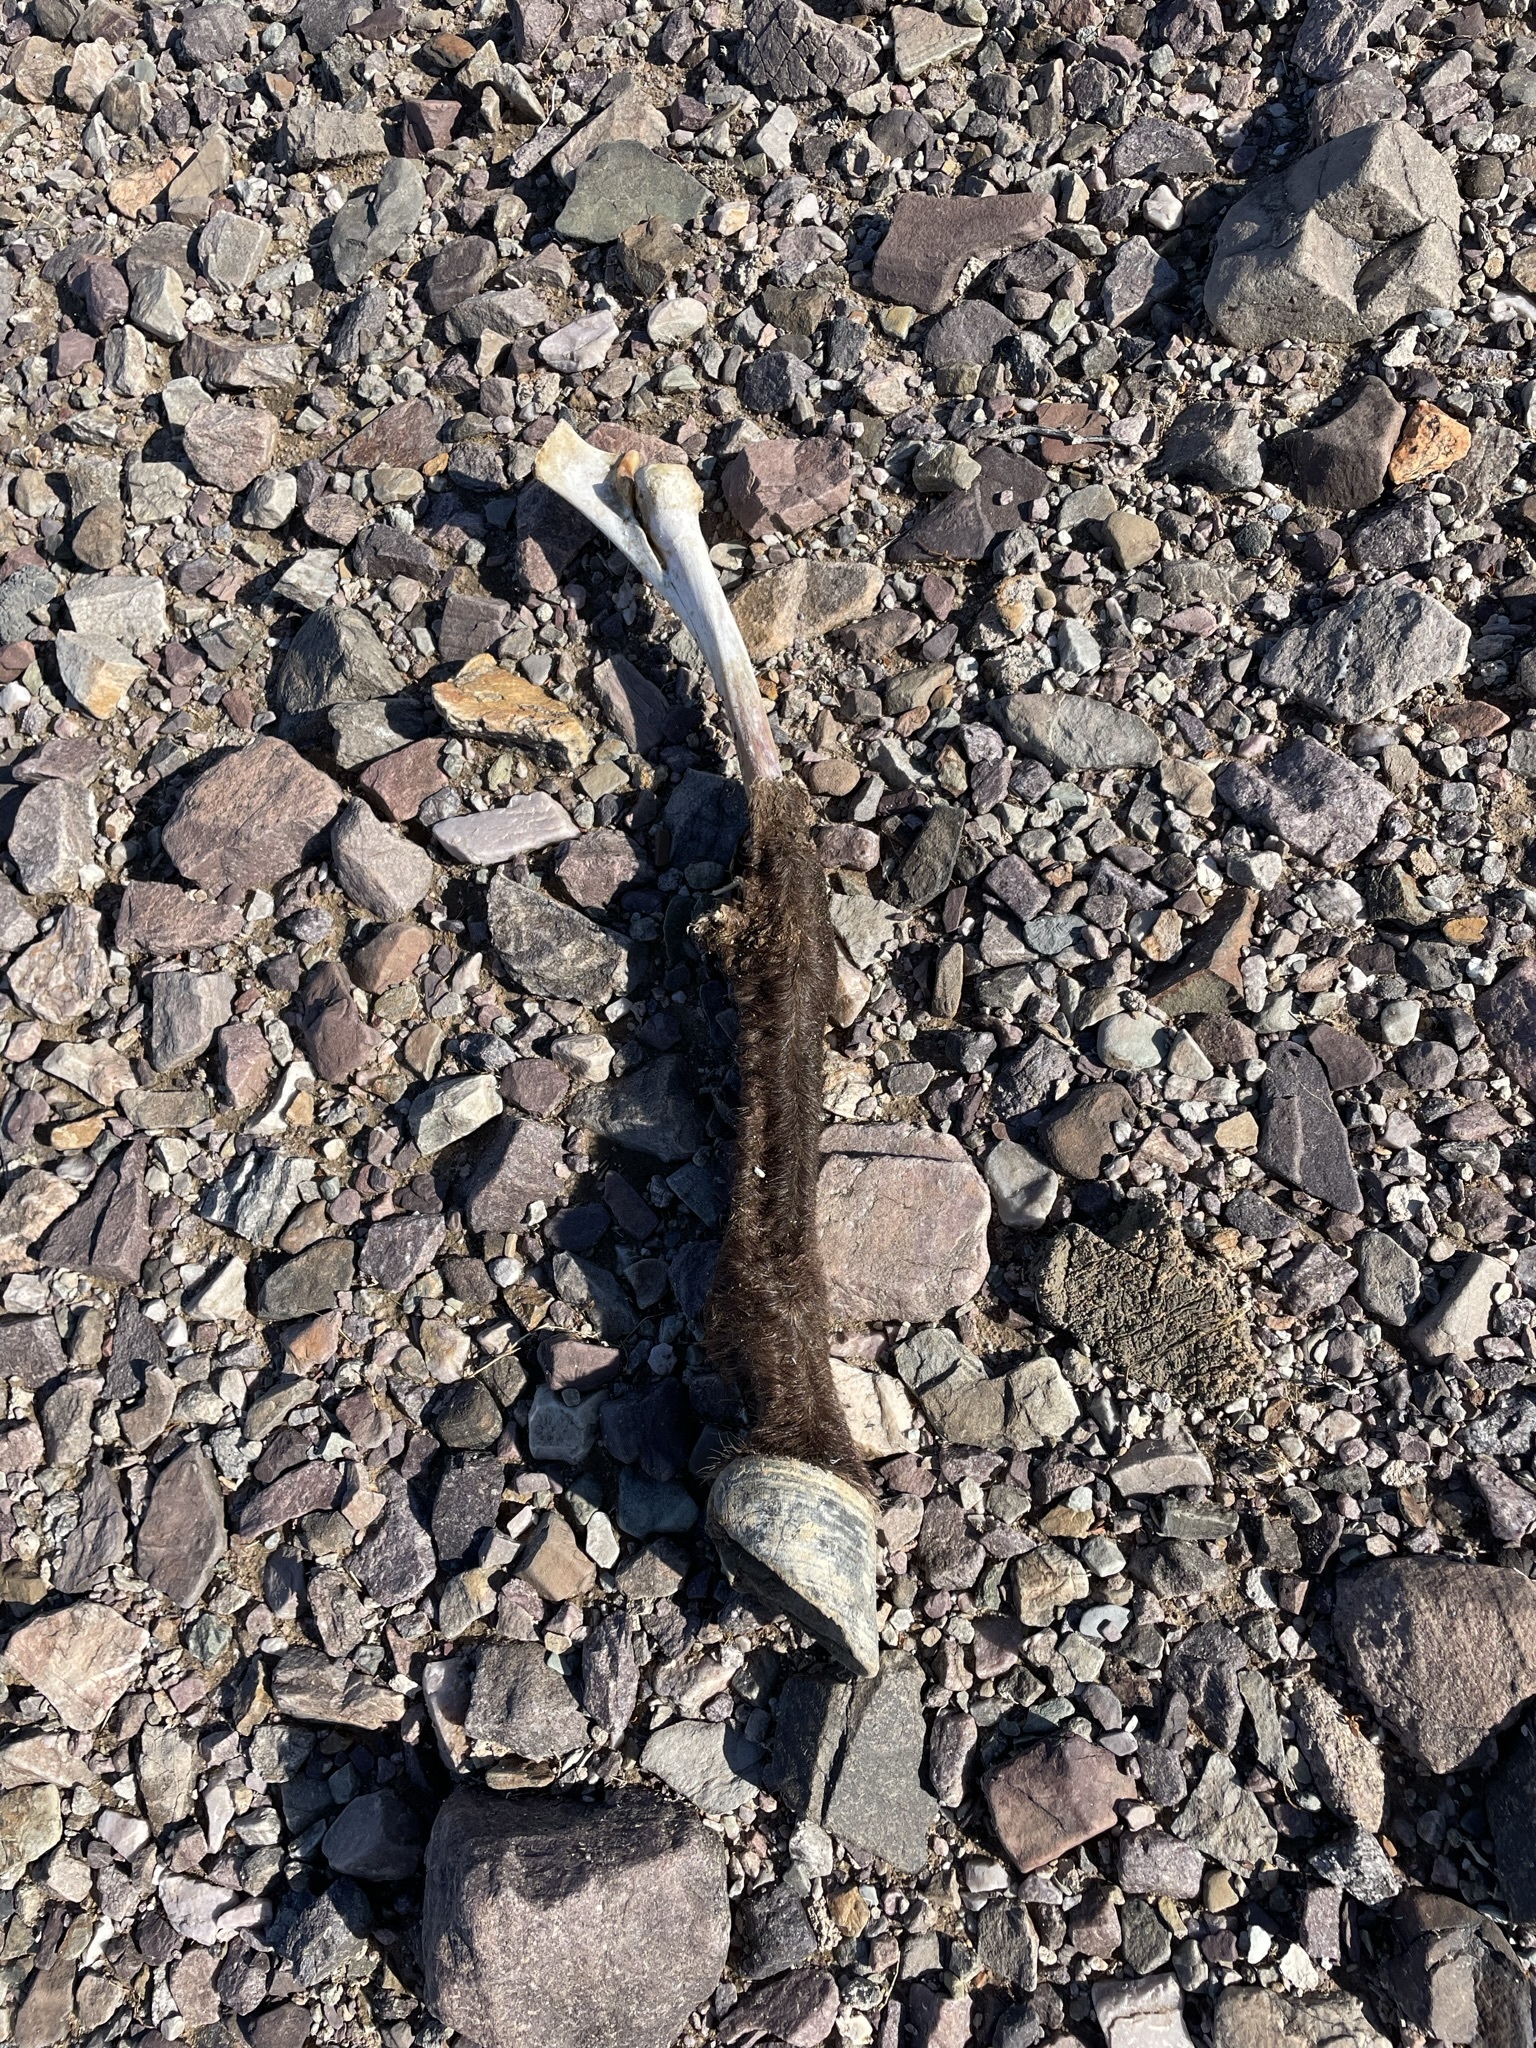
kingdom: Animalia
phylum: Chordata
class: Mammalia
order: Perissodactyla
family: Equidae
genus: Equus
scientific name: Equus asinus
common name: Ass
